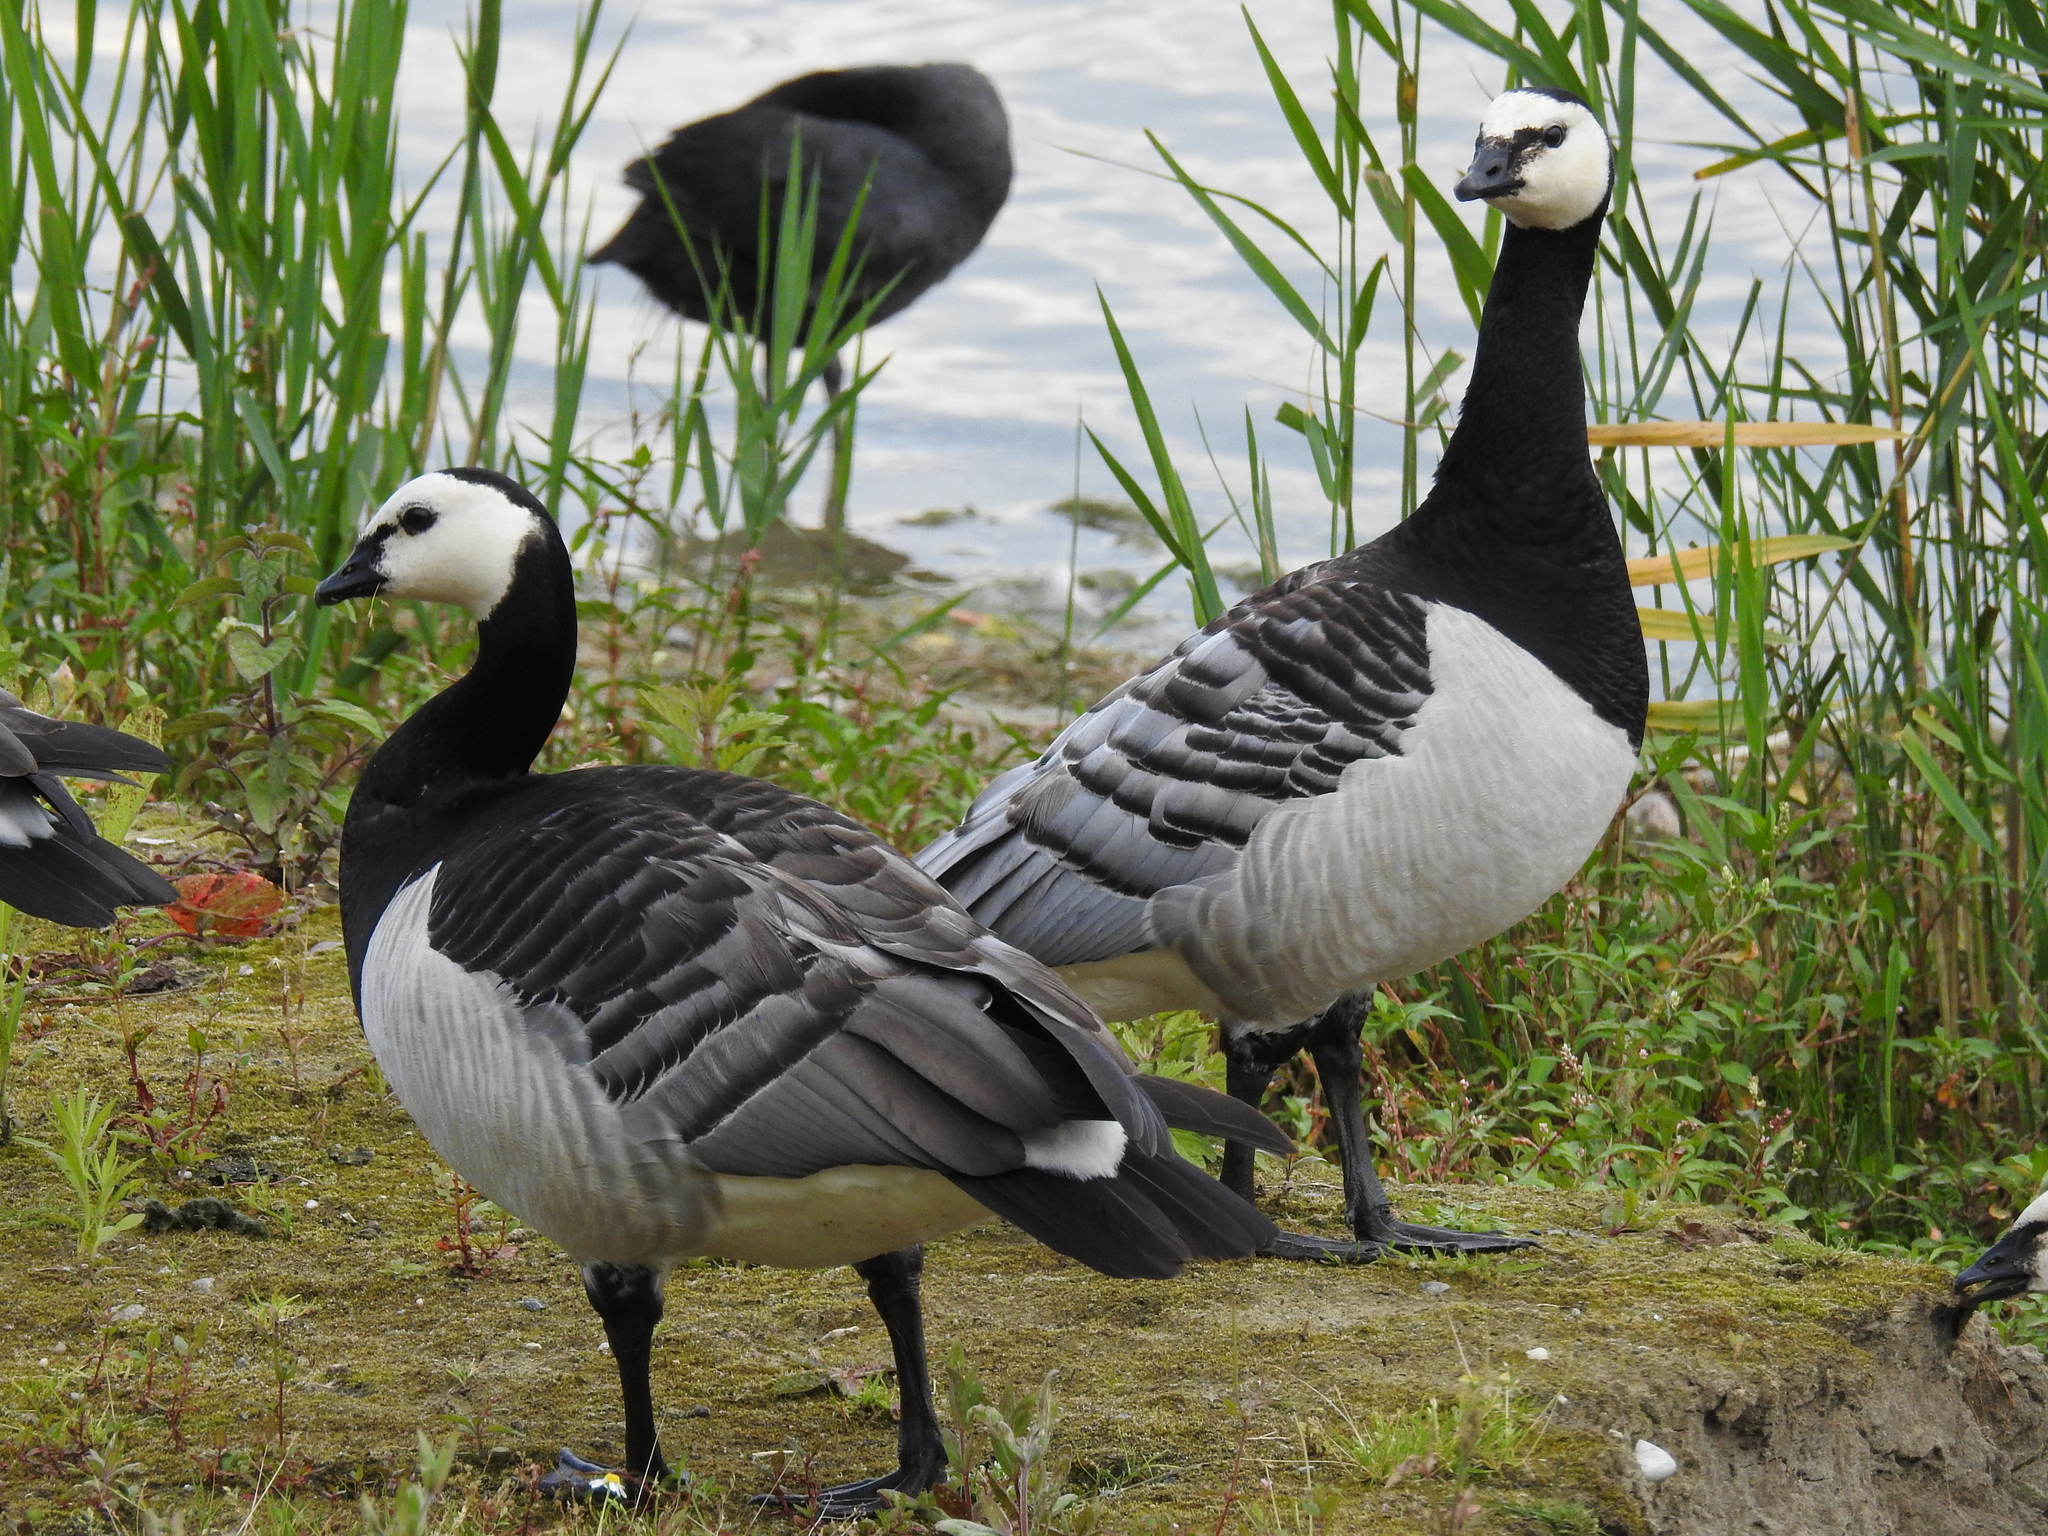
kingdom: Animalia
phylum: Chordata
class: Aves
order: Anseriformes
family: Anatidae
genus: Branta
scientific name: Branta leucopsis
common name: Barnacle goose
